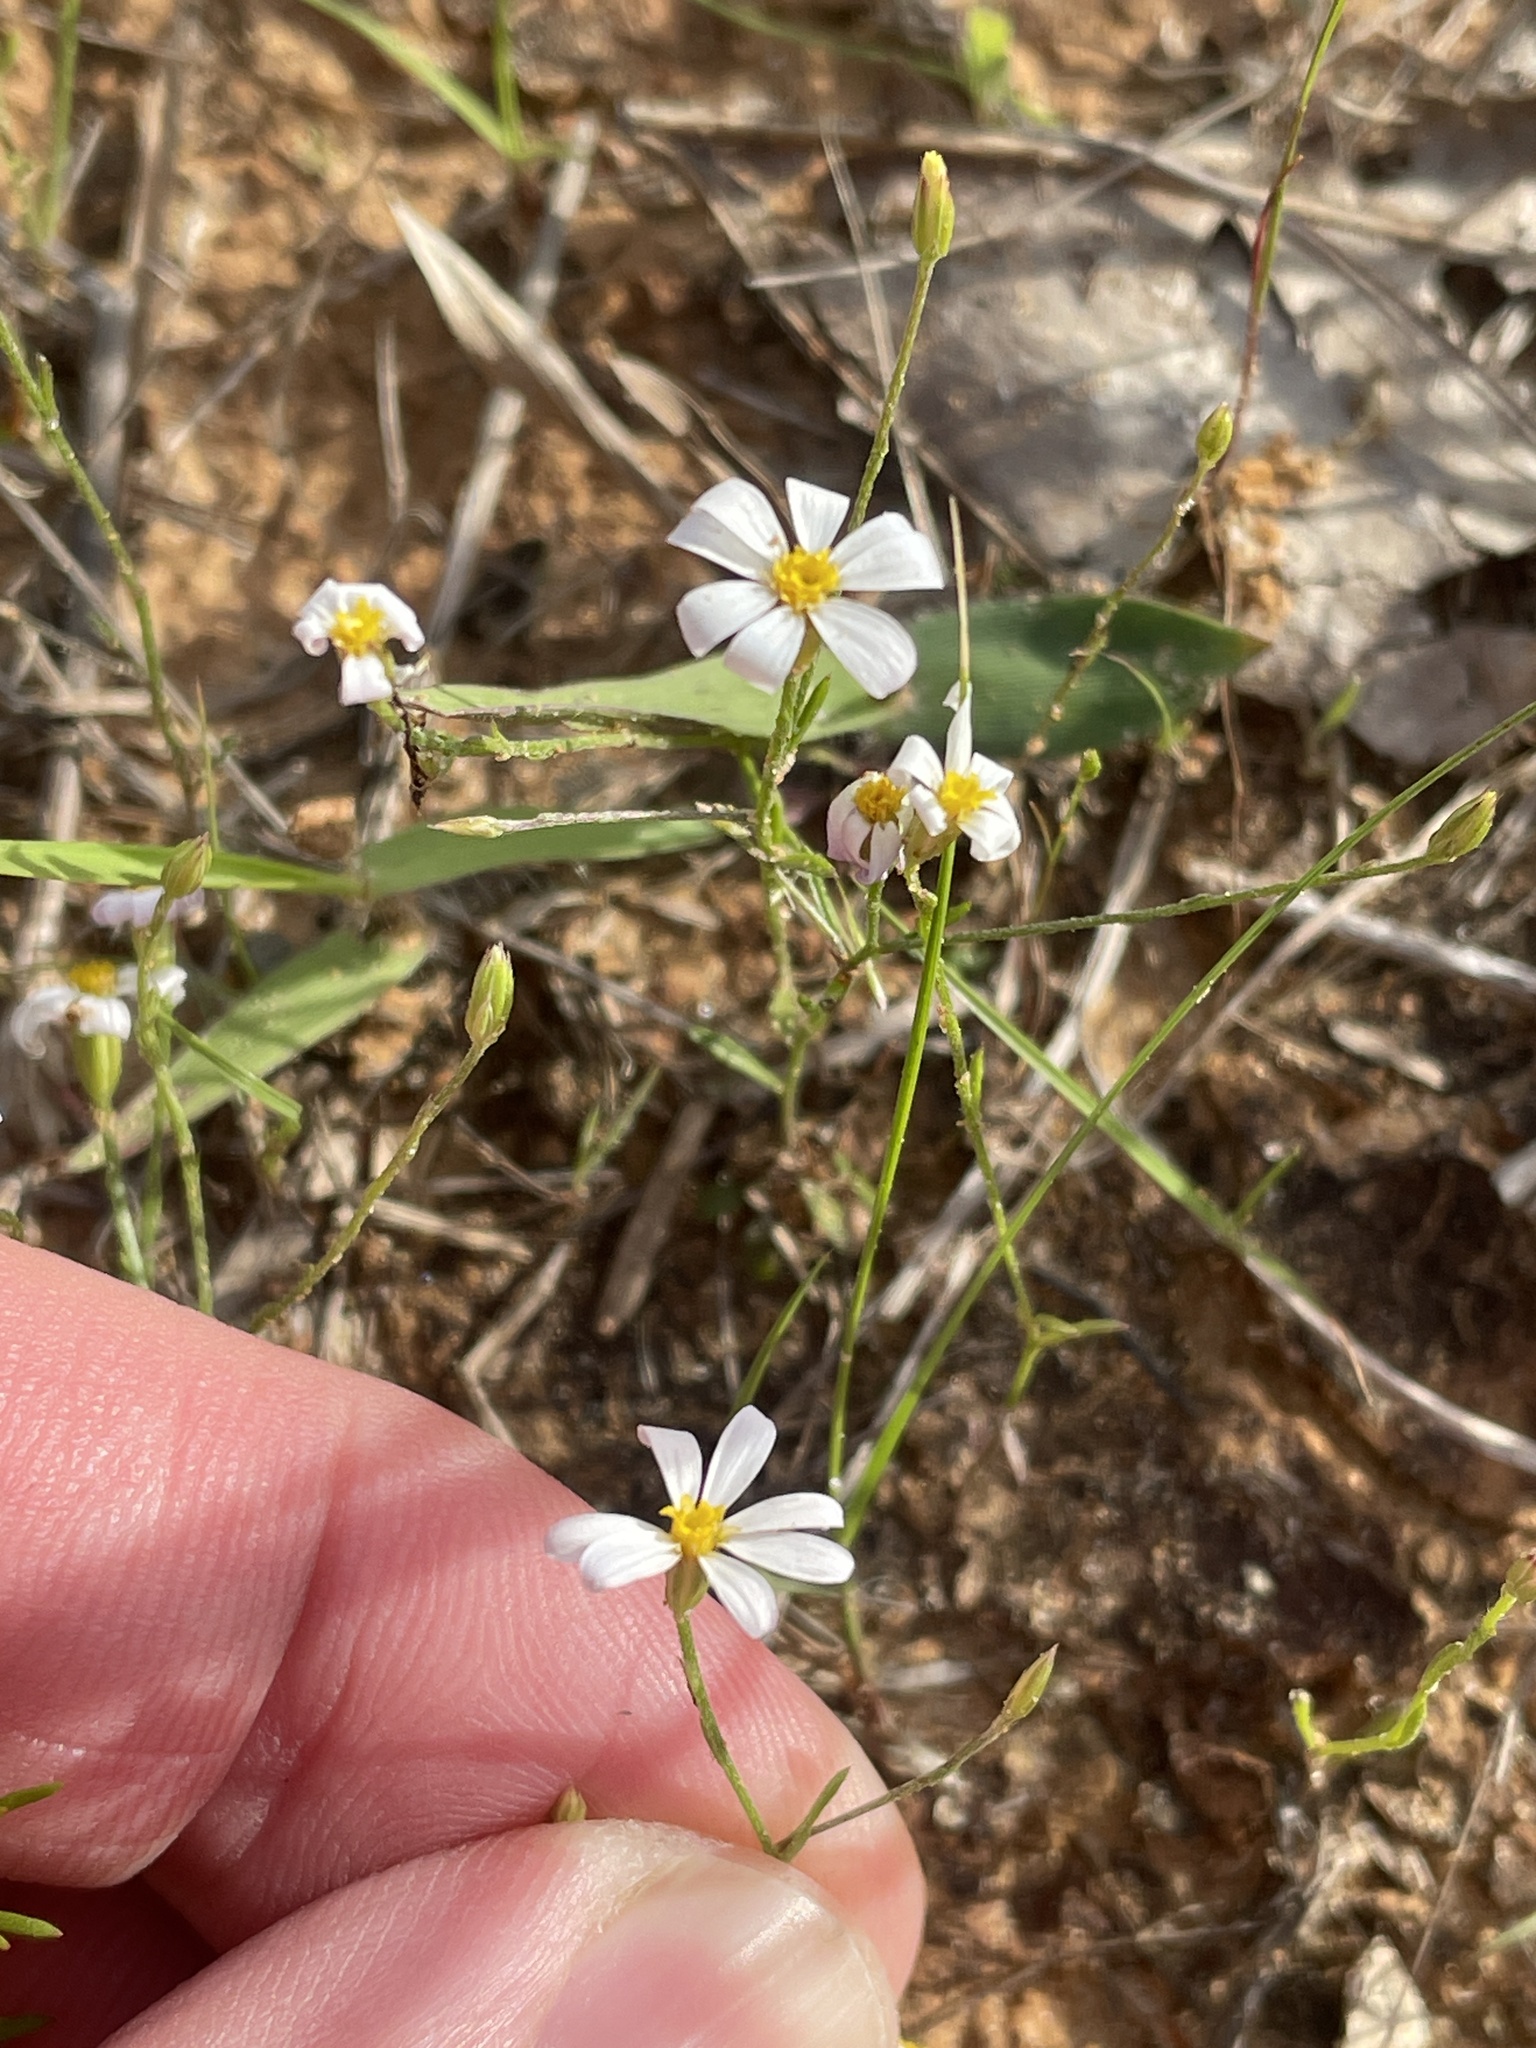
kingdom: Plantae
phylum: Tracheophyta
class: Magnoliopsida
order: Asterales
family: Asteraceae
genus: Chaetopappa
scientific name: Chaetopappa asteroides
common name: Tiny lazy daisy
